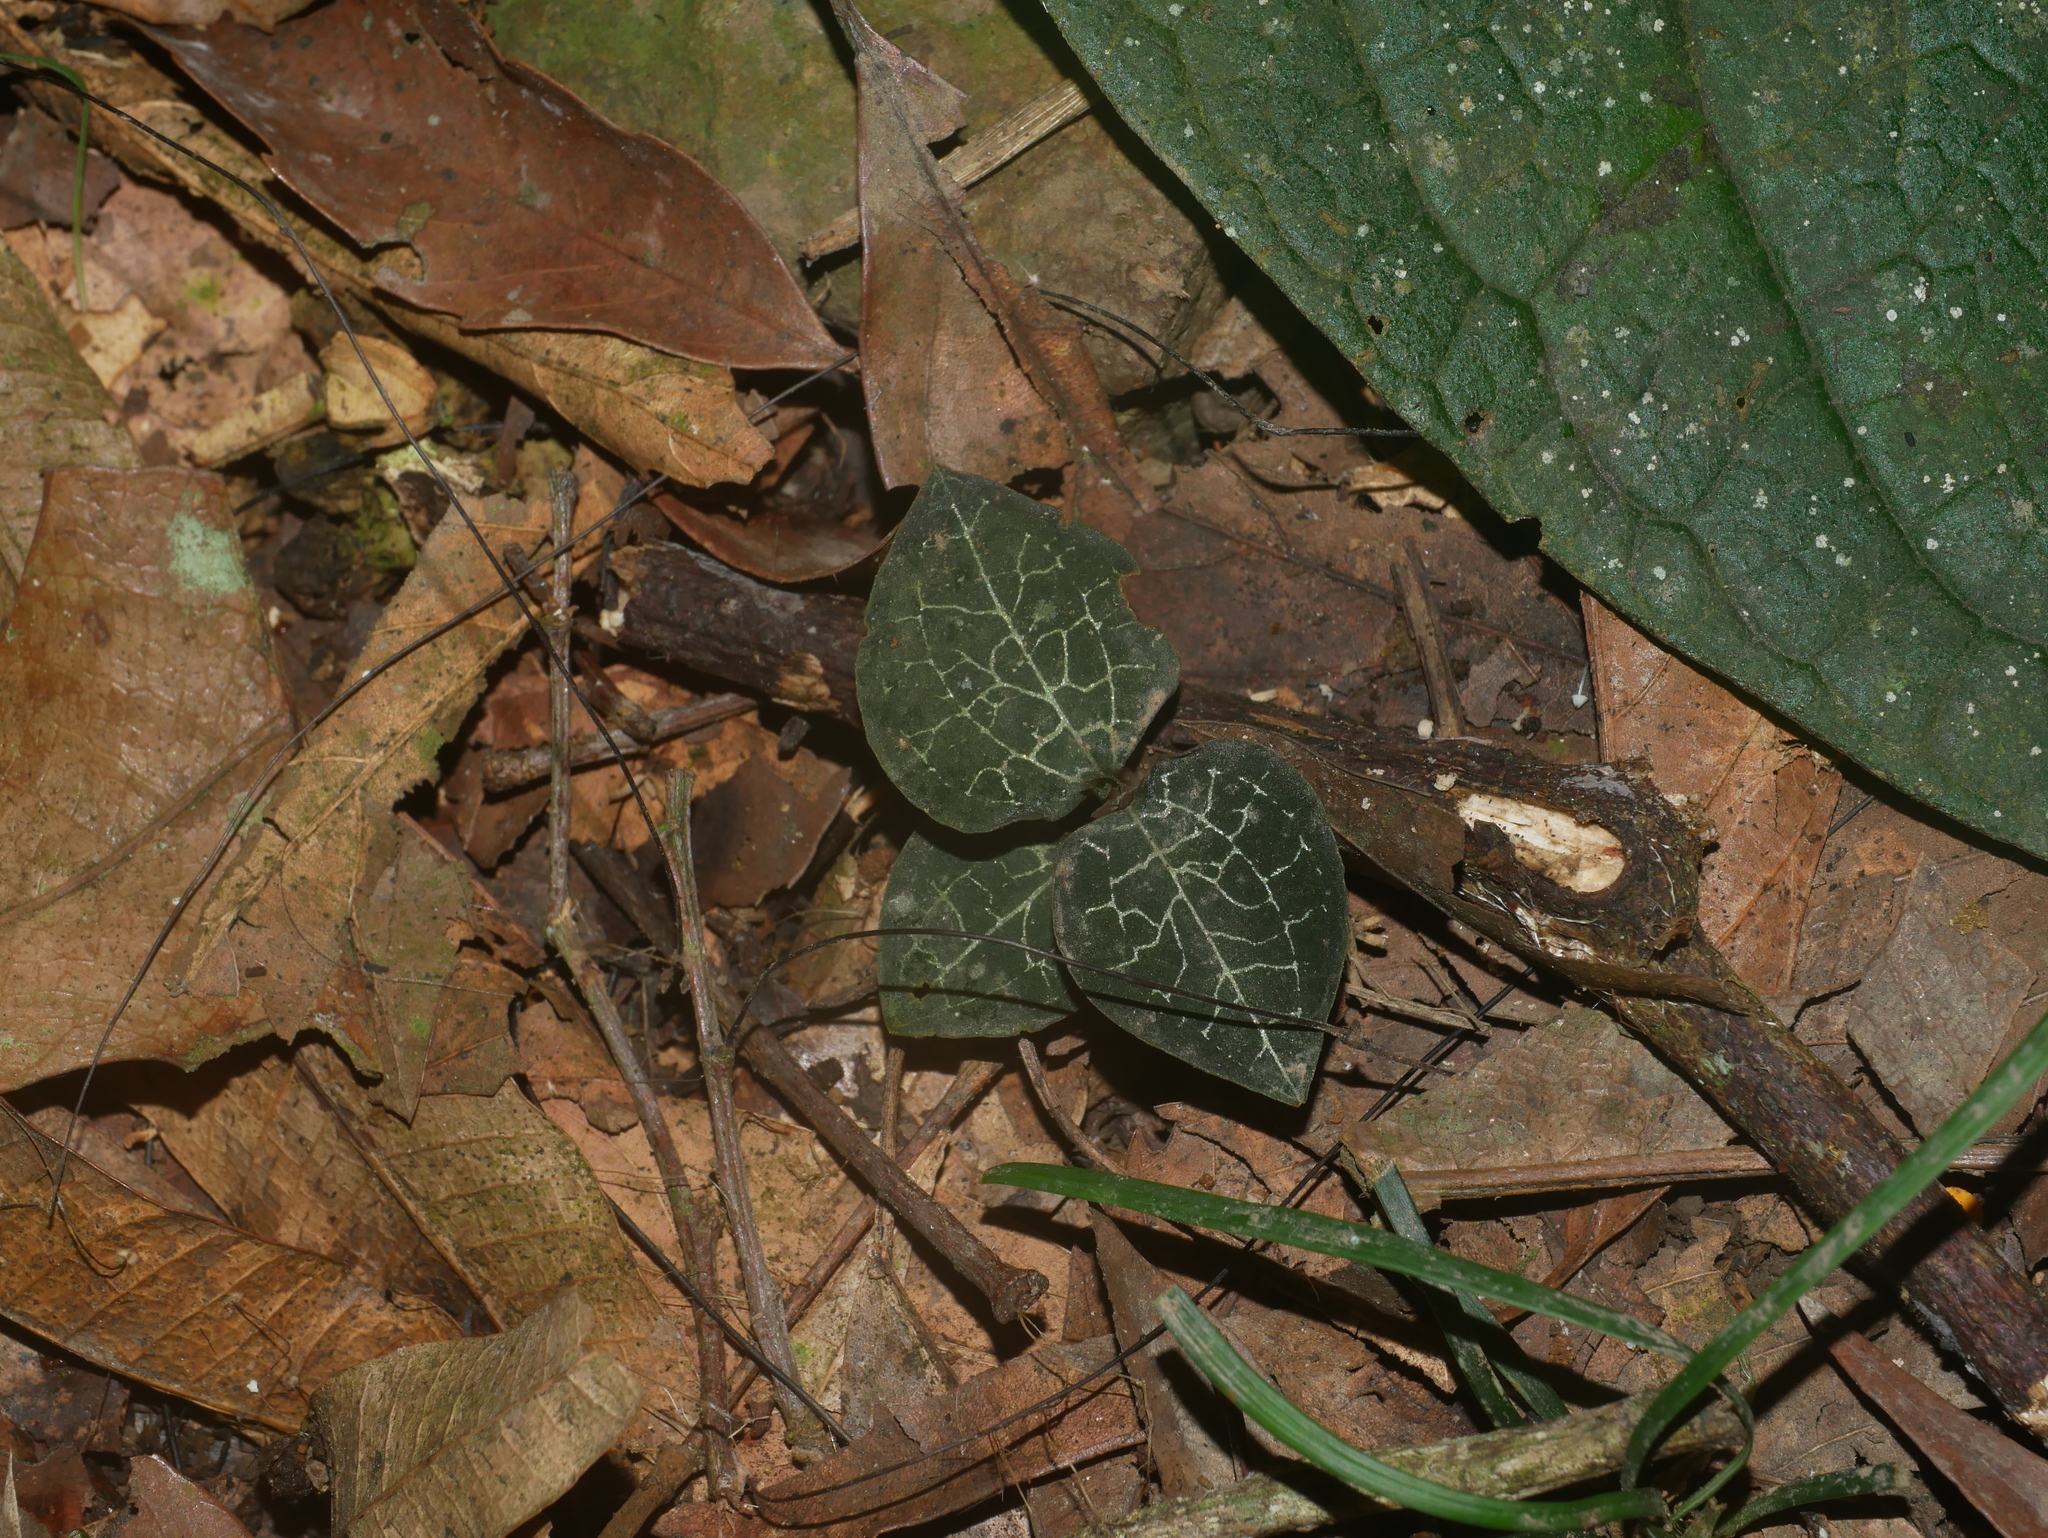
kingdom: Plantae
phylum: Tracheophyta
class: Liliopsida
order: Asparagales
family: Orchidaceae
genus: Anoectochilus
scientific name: Anoectochilus formosanus
